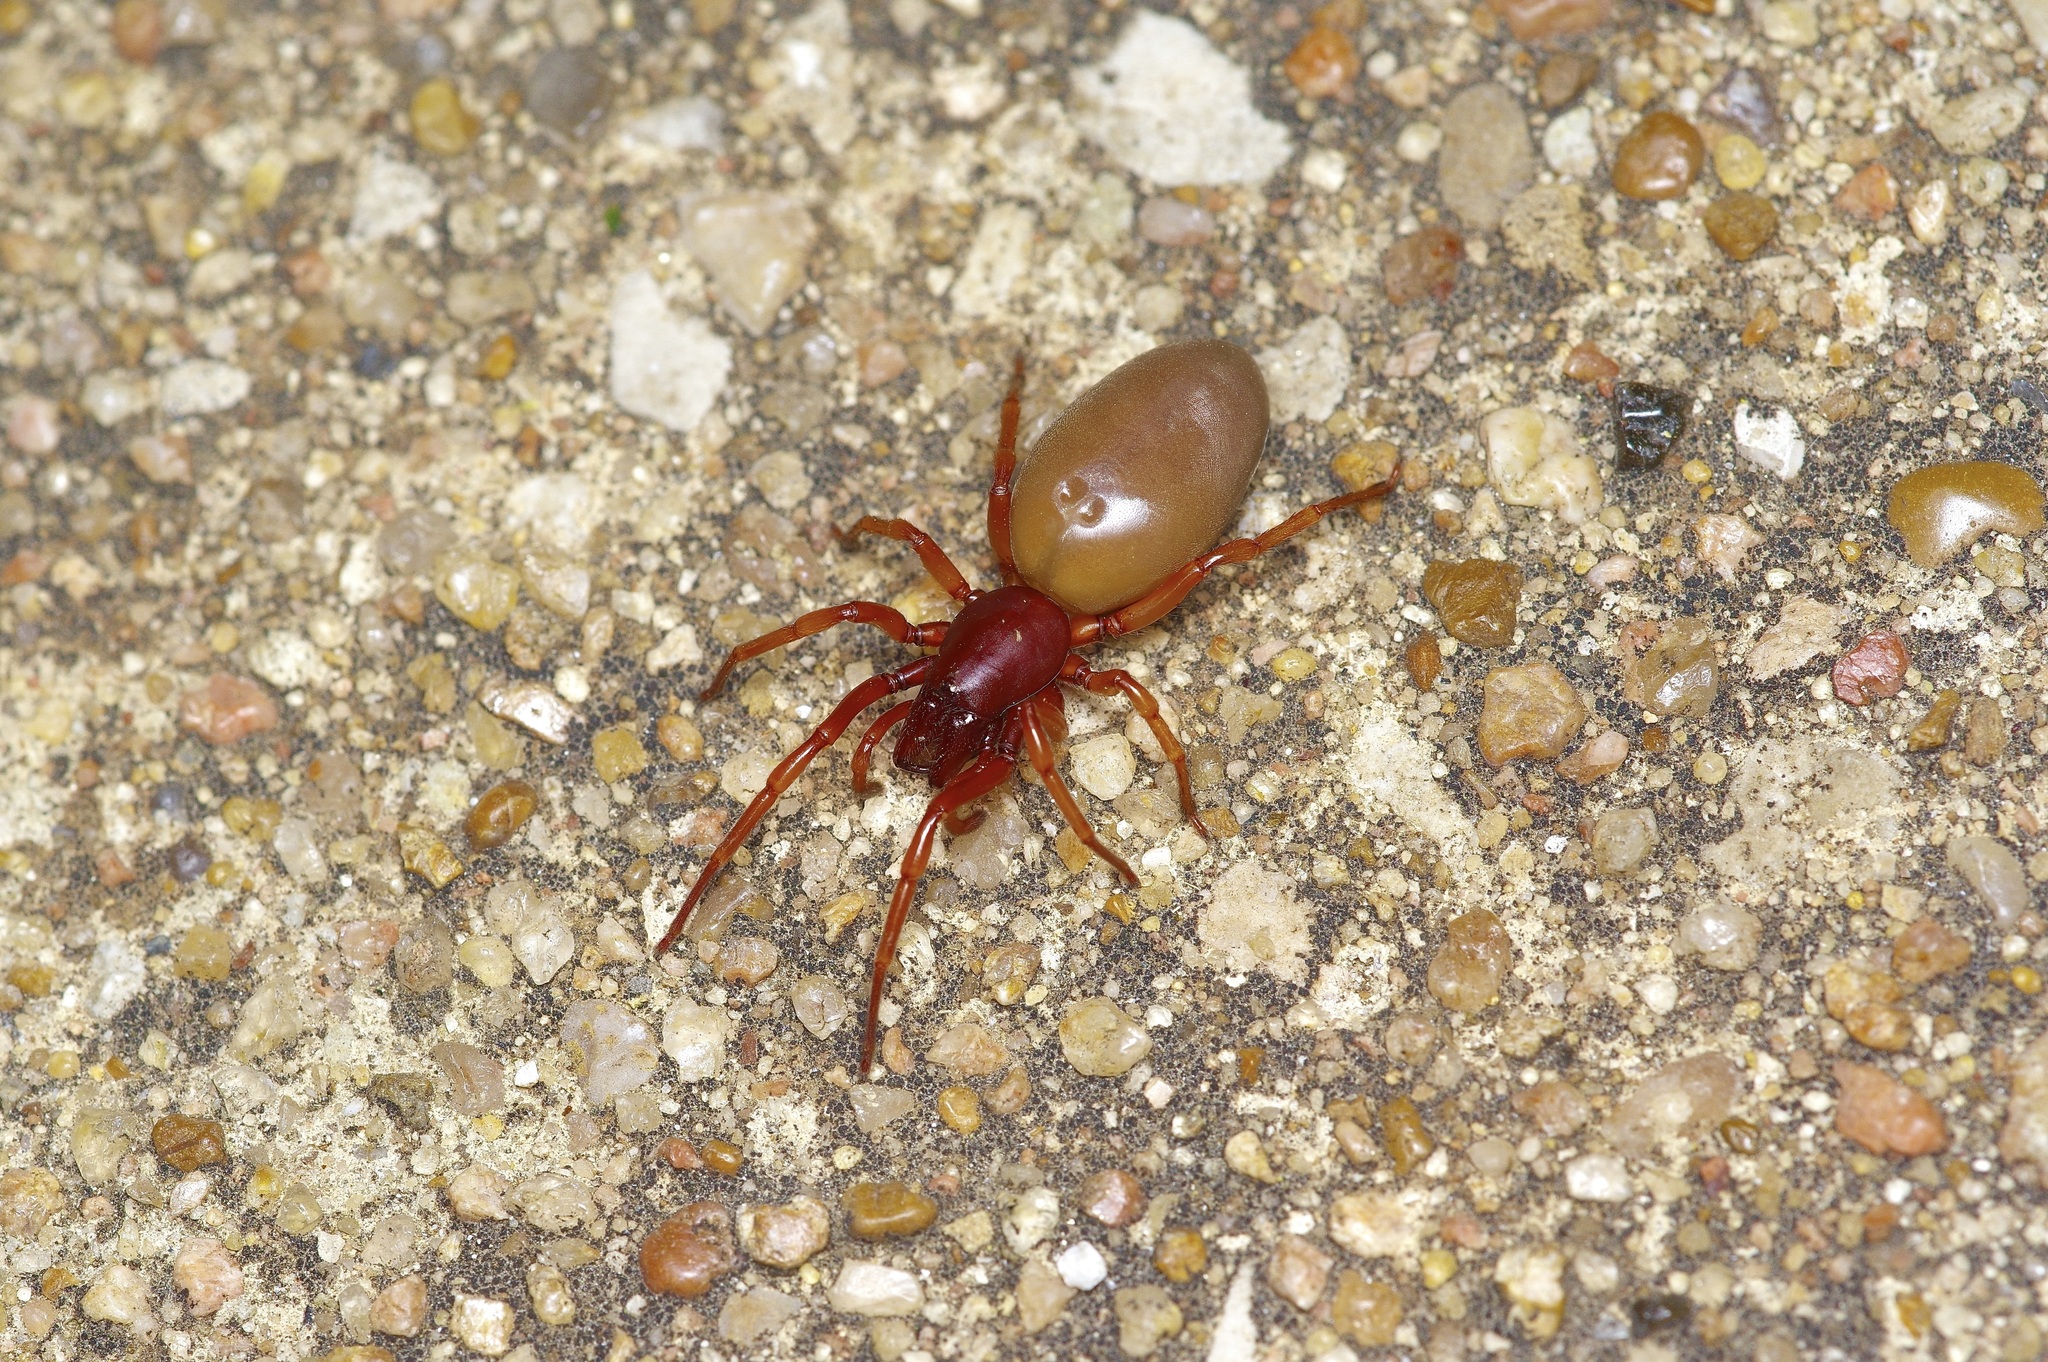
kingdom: Animalia
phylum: Arthropoda
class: Arachnida
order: Araneae
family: Dysderidae
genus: Dysdera
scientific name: Dysdera crocata
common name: Woodlouse spider
